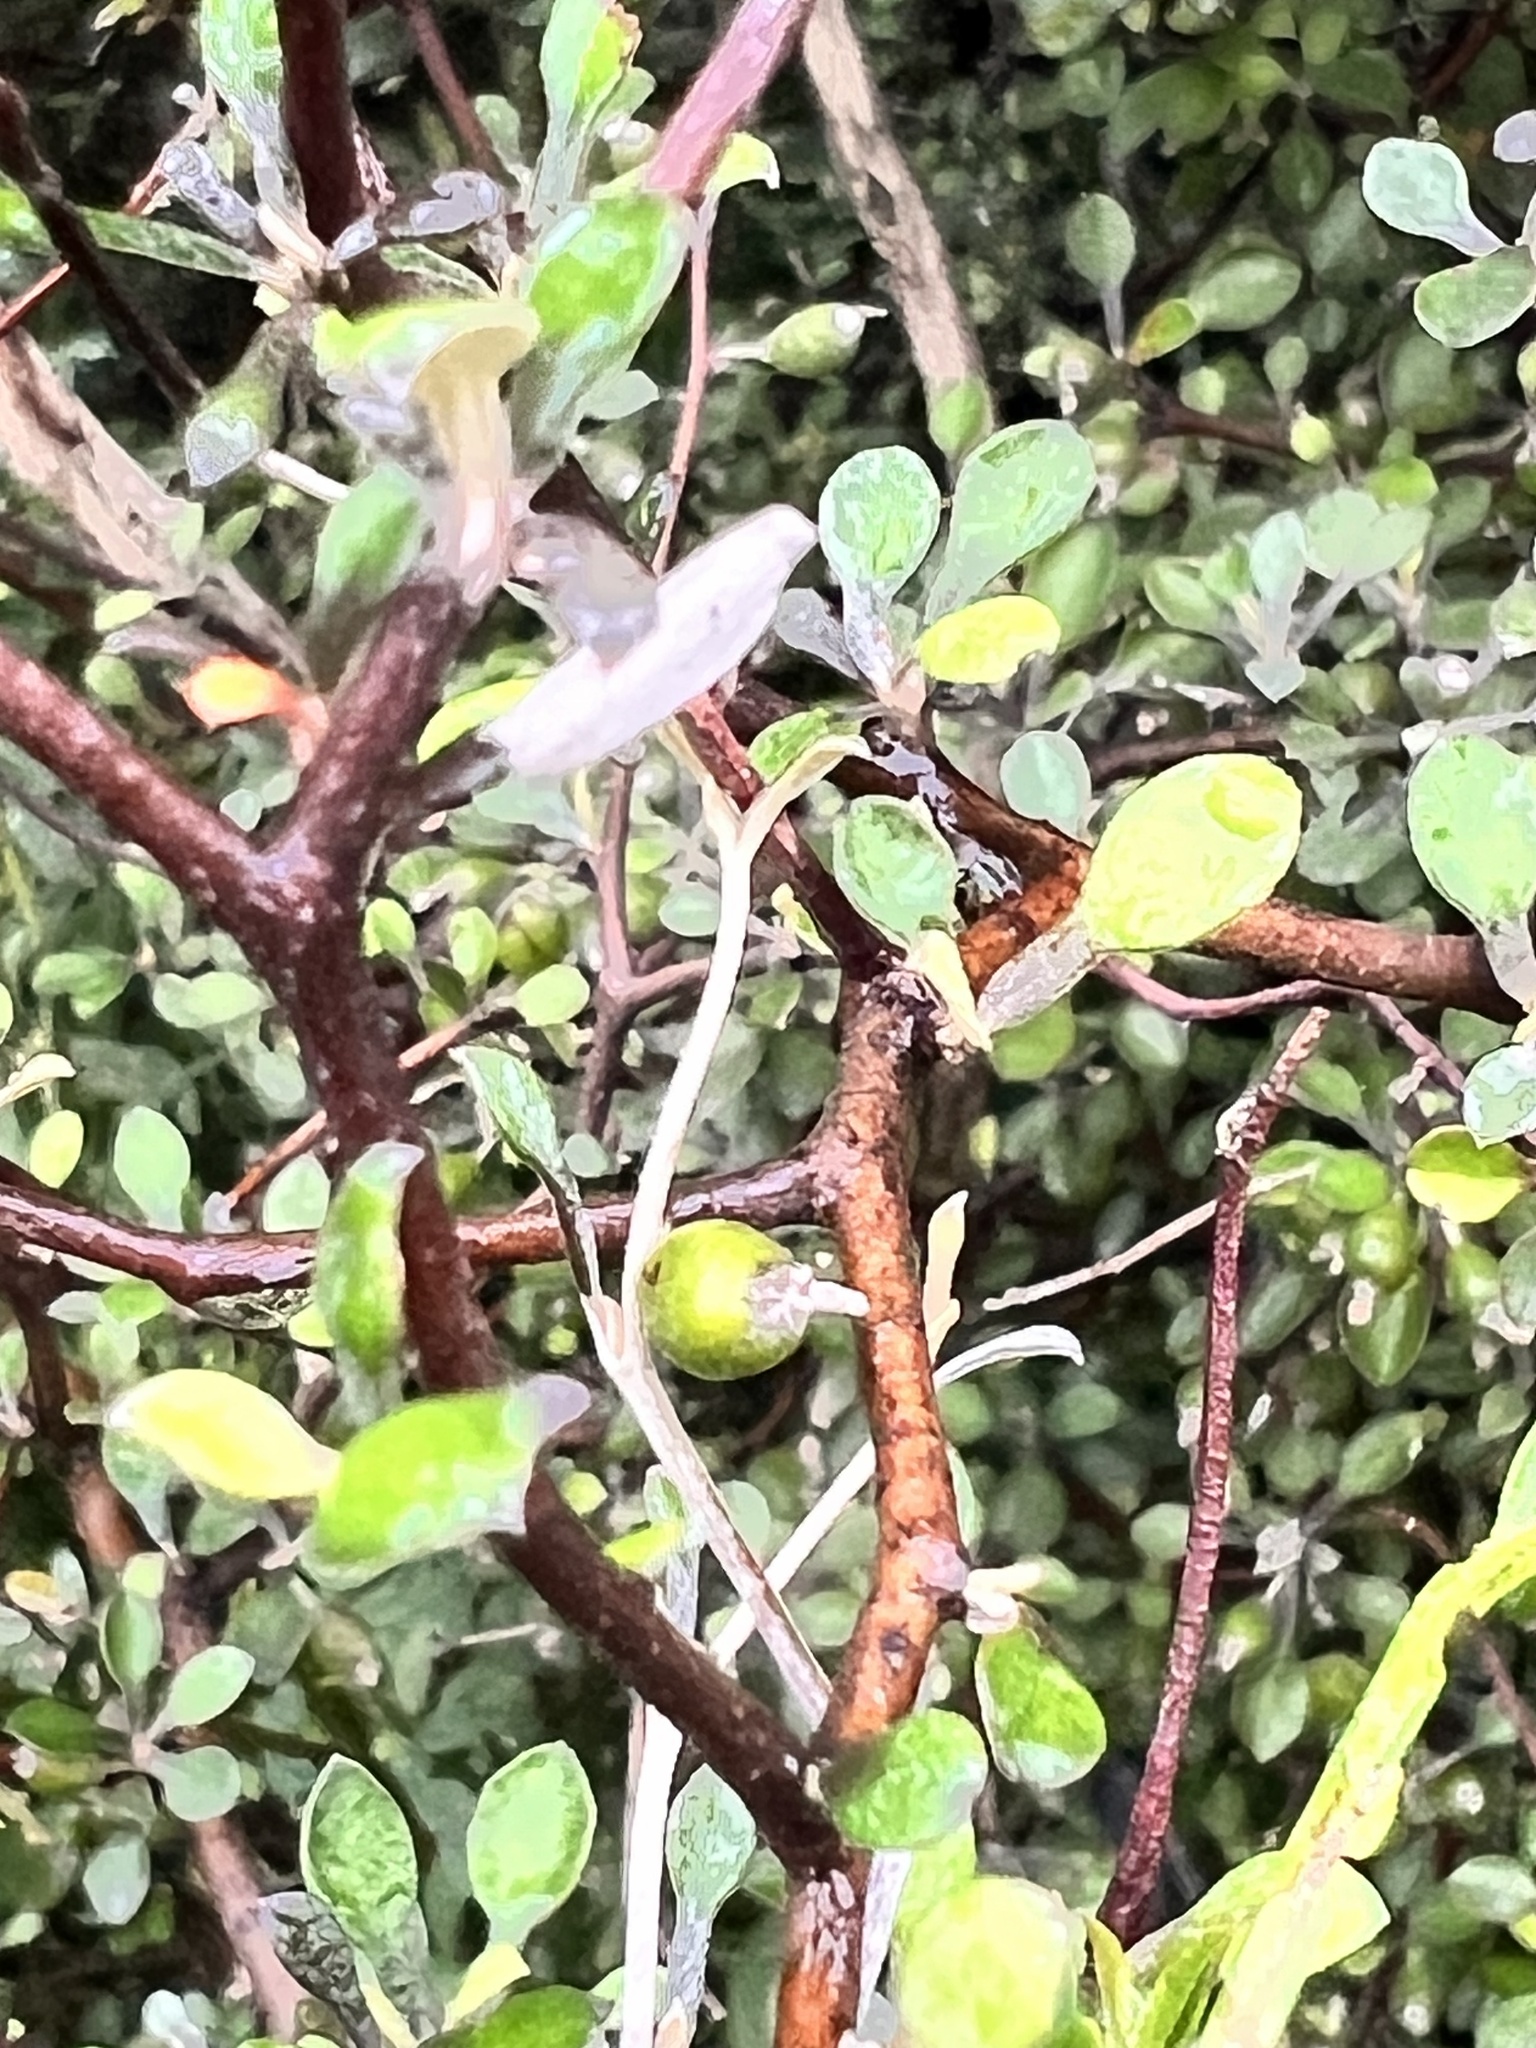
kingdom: Plantae
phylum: Tracheophyta
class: Magnoliopsida
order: Asterales
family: Argophyllaceae
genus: Corokia
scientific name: Corokia cotoneaster
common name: Wire nettingbush
